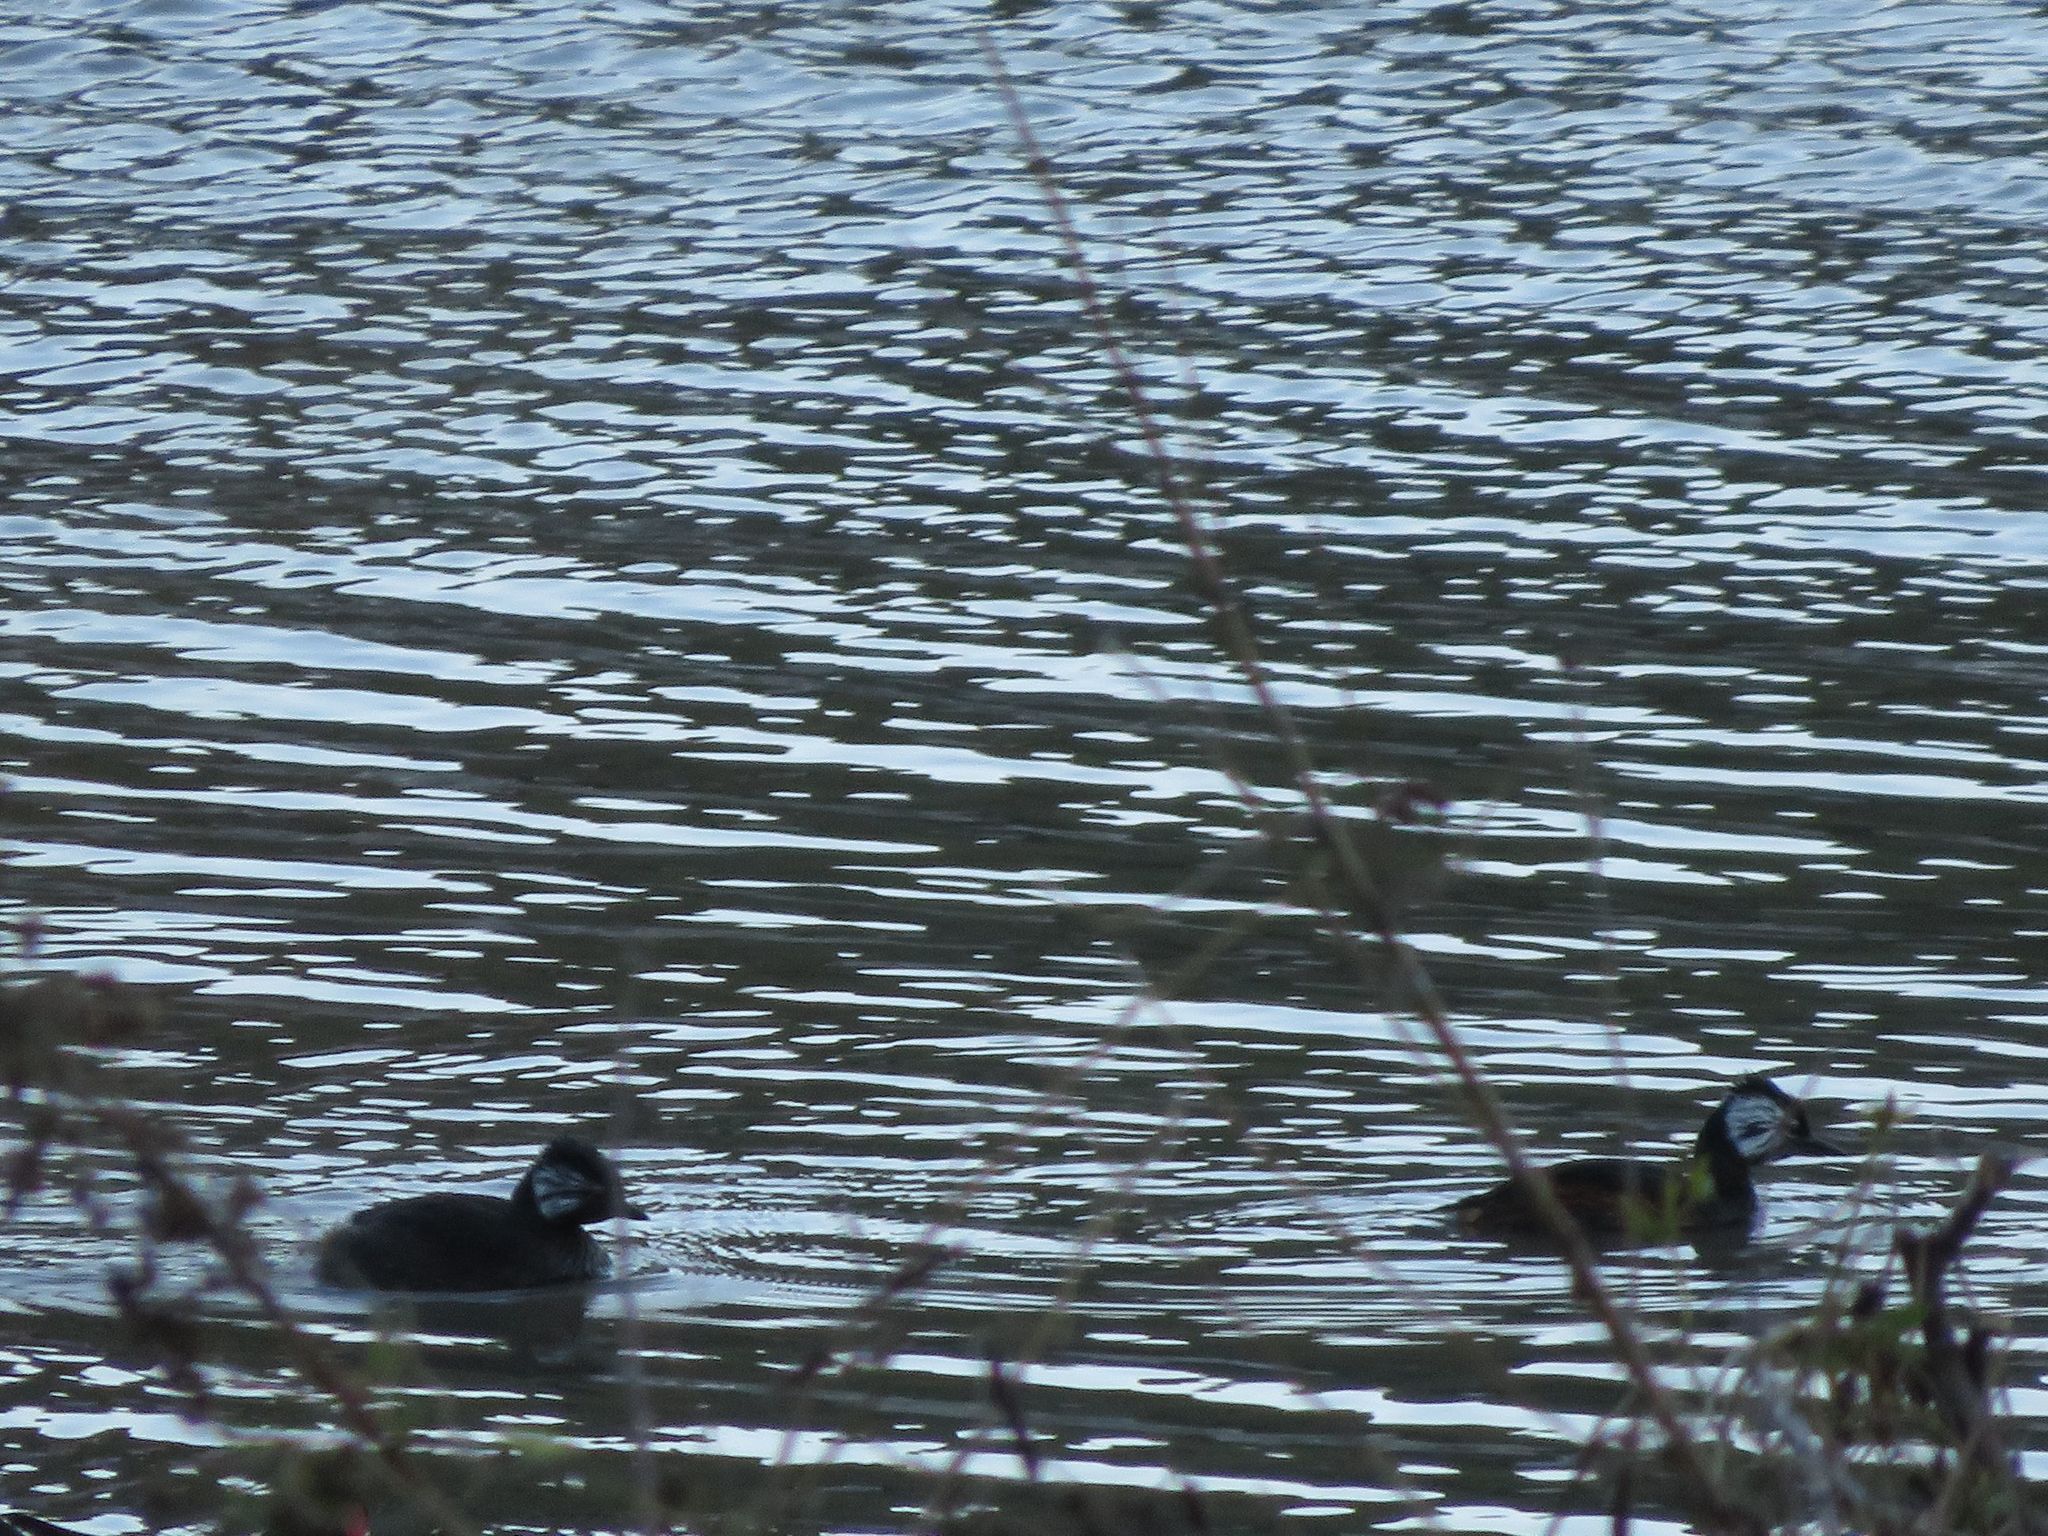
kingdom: Animalia
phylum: Chordata
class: Aves
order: Podicipediformes
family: Podicipedidae
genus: Rollandia
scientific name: Rollandia rolland
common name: White-tufted grebe
